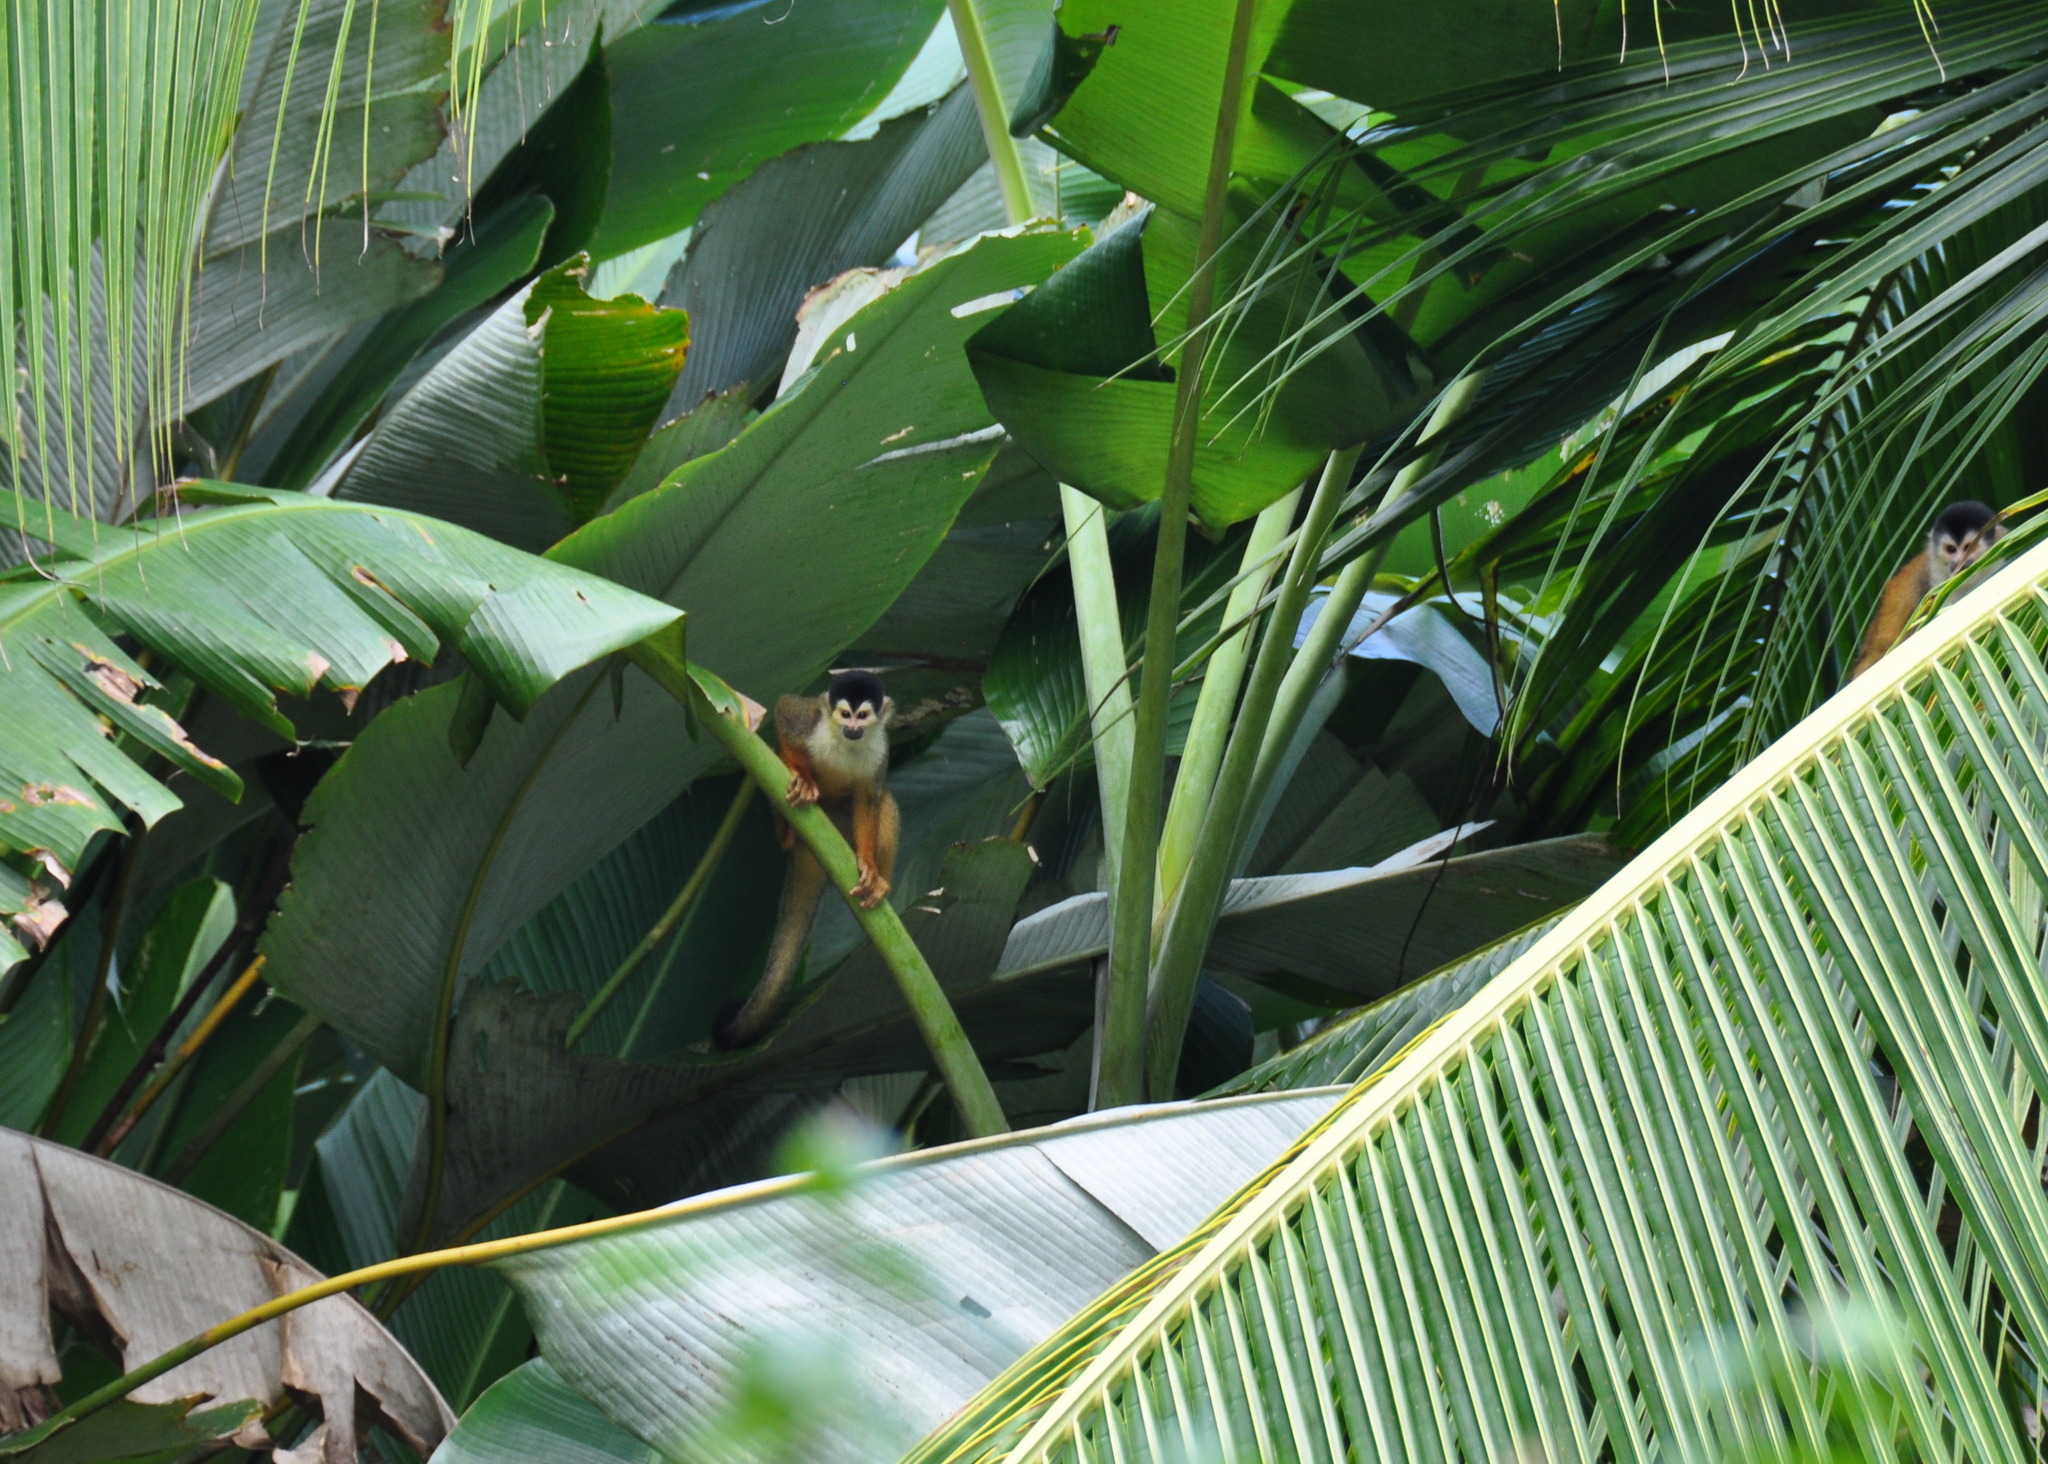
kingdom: Animalia
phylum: Chordata
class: Mammalia
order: Primates
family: Cebidae
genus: Saimiri
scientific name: Saimiri oerstedii
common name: Central american squirrel monkey
